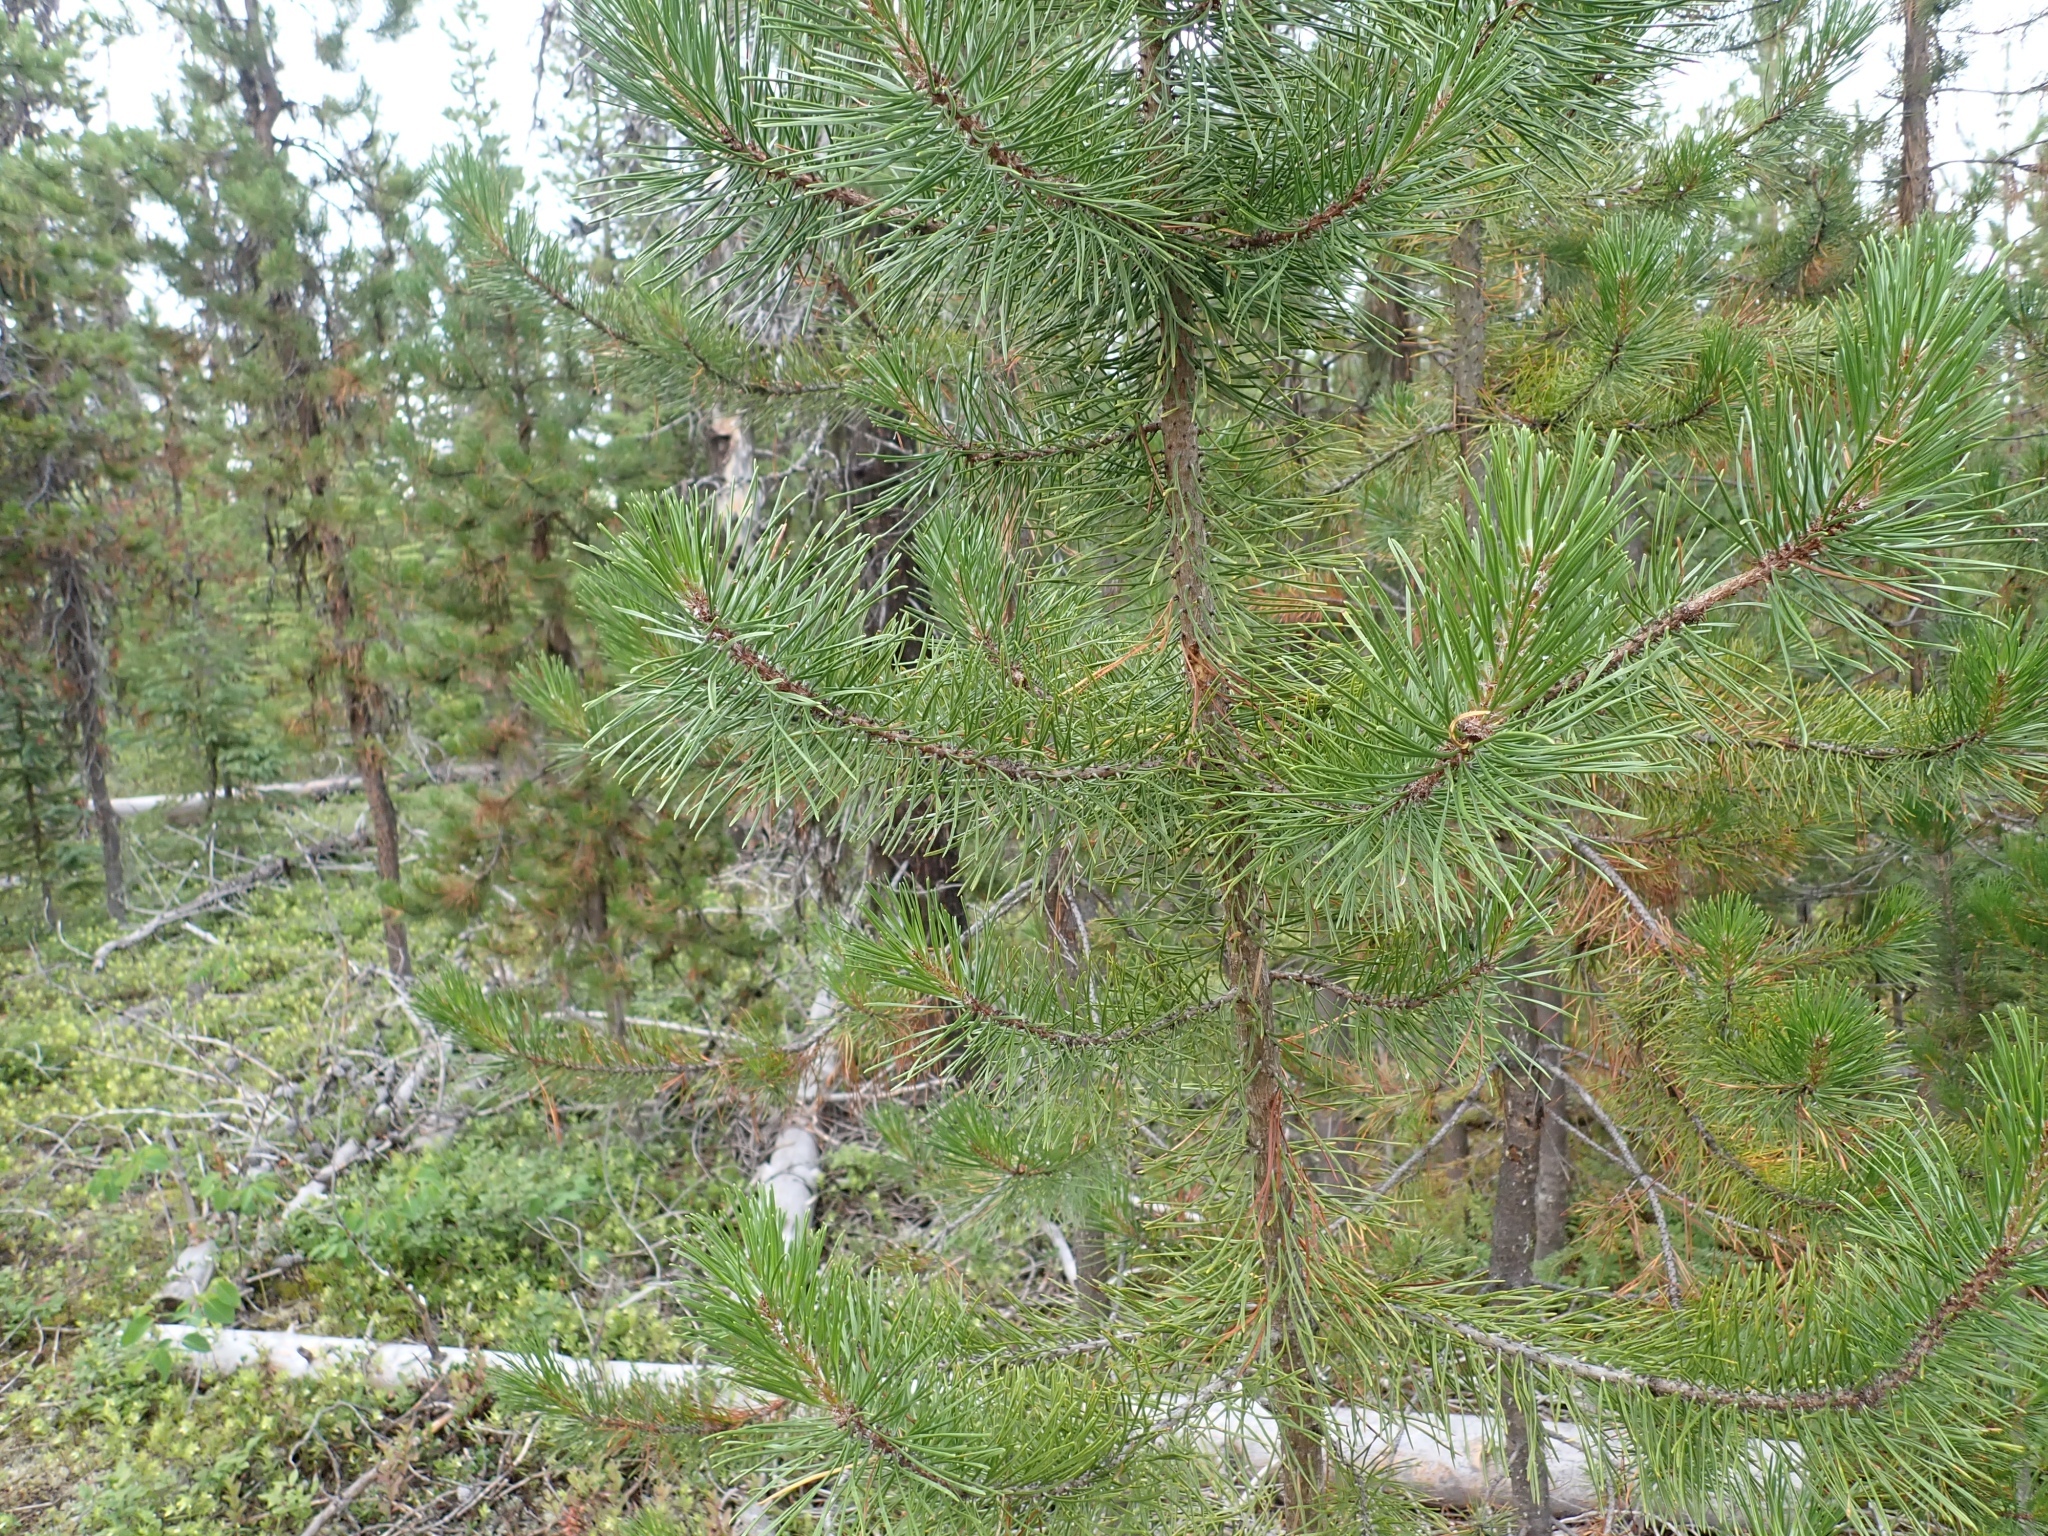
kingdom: Plantae
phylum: Tracheophyta
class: Pinopsida
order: Pinales
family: Pinaceae
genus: Pinus
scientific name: Pinus contorta
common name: Lodgepole pine
